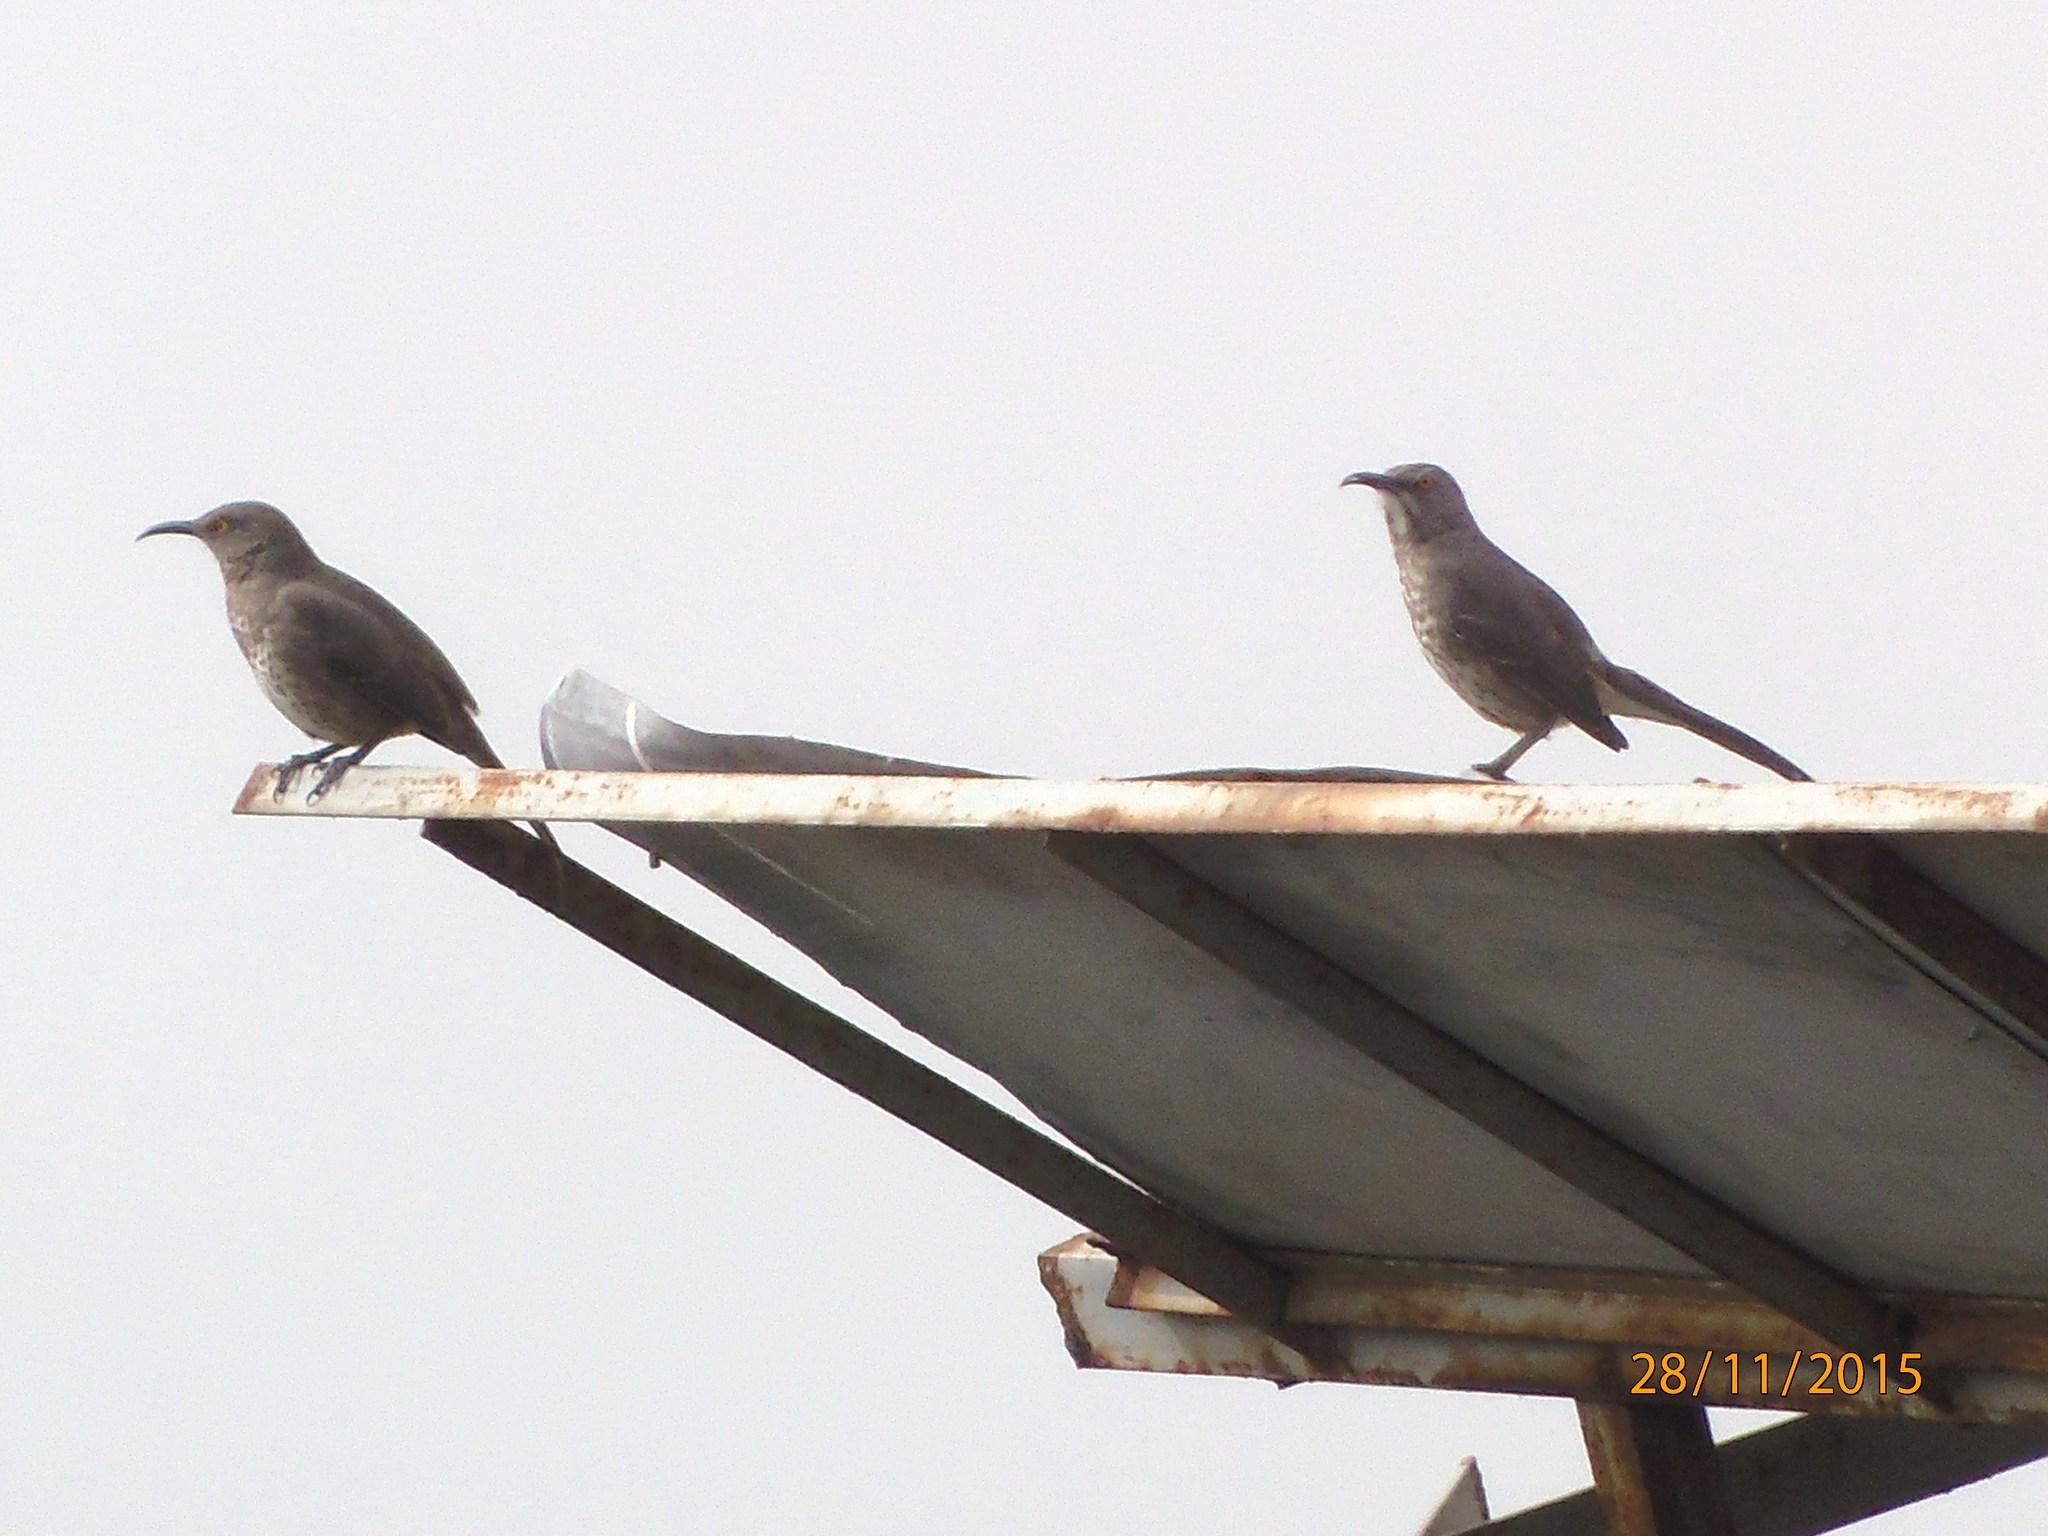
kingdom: Animalia
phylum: Chordata
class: Aves
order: Passeriformes
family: Mimidae
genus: Toxostoma
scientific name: Toxostoma curvirostre
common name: Curve-billed thrasher
